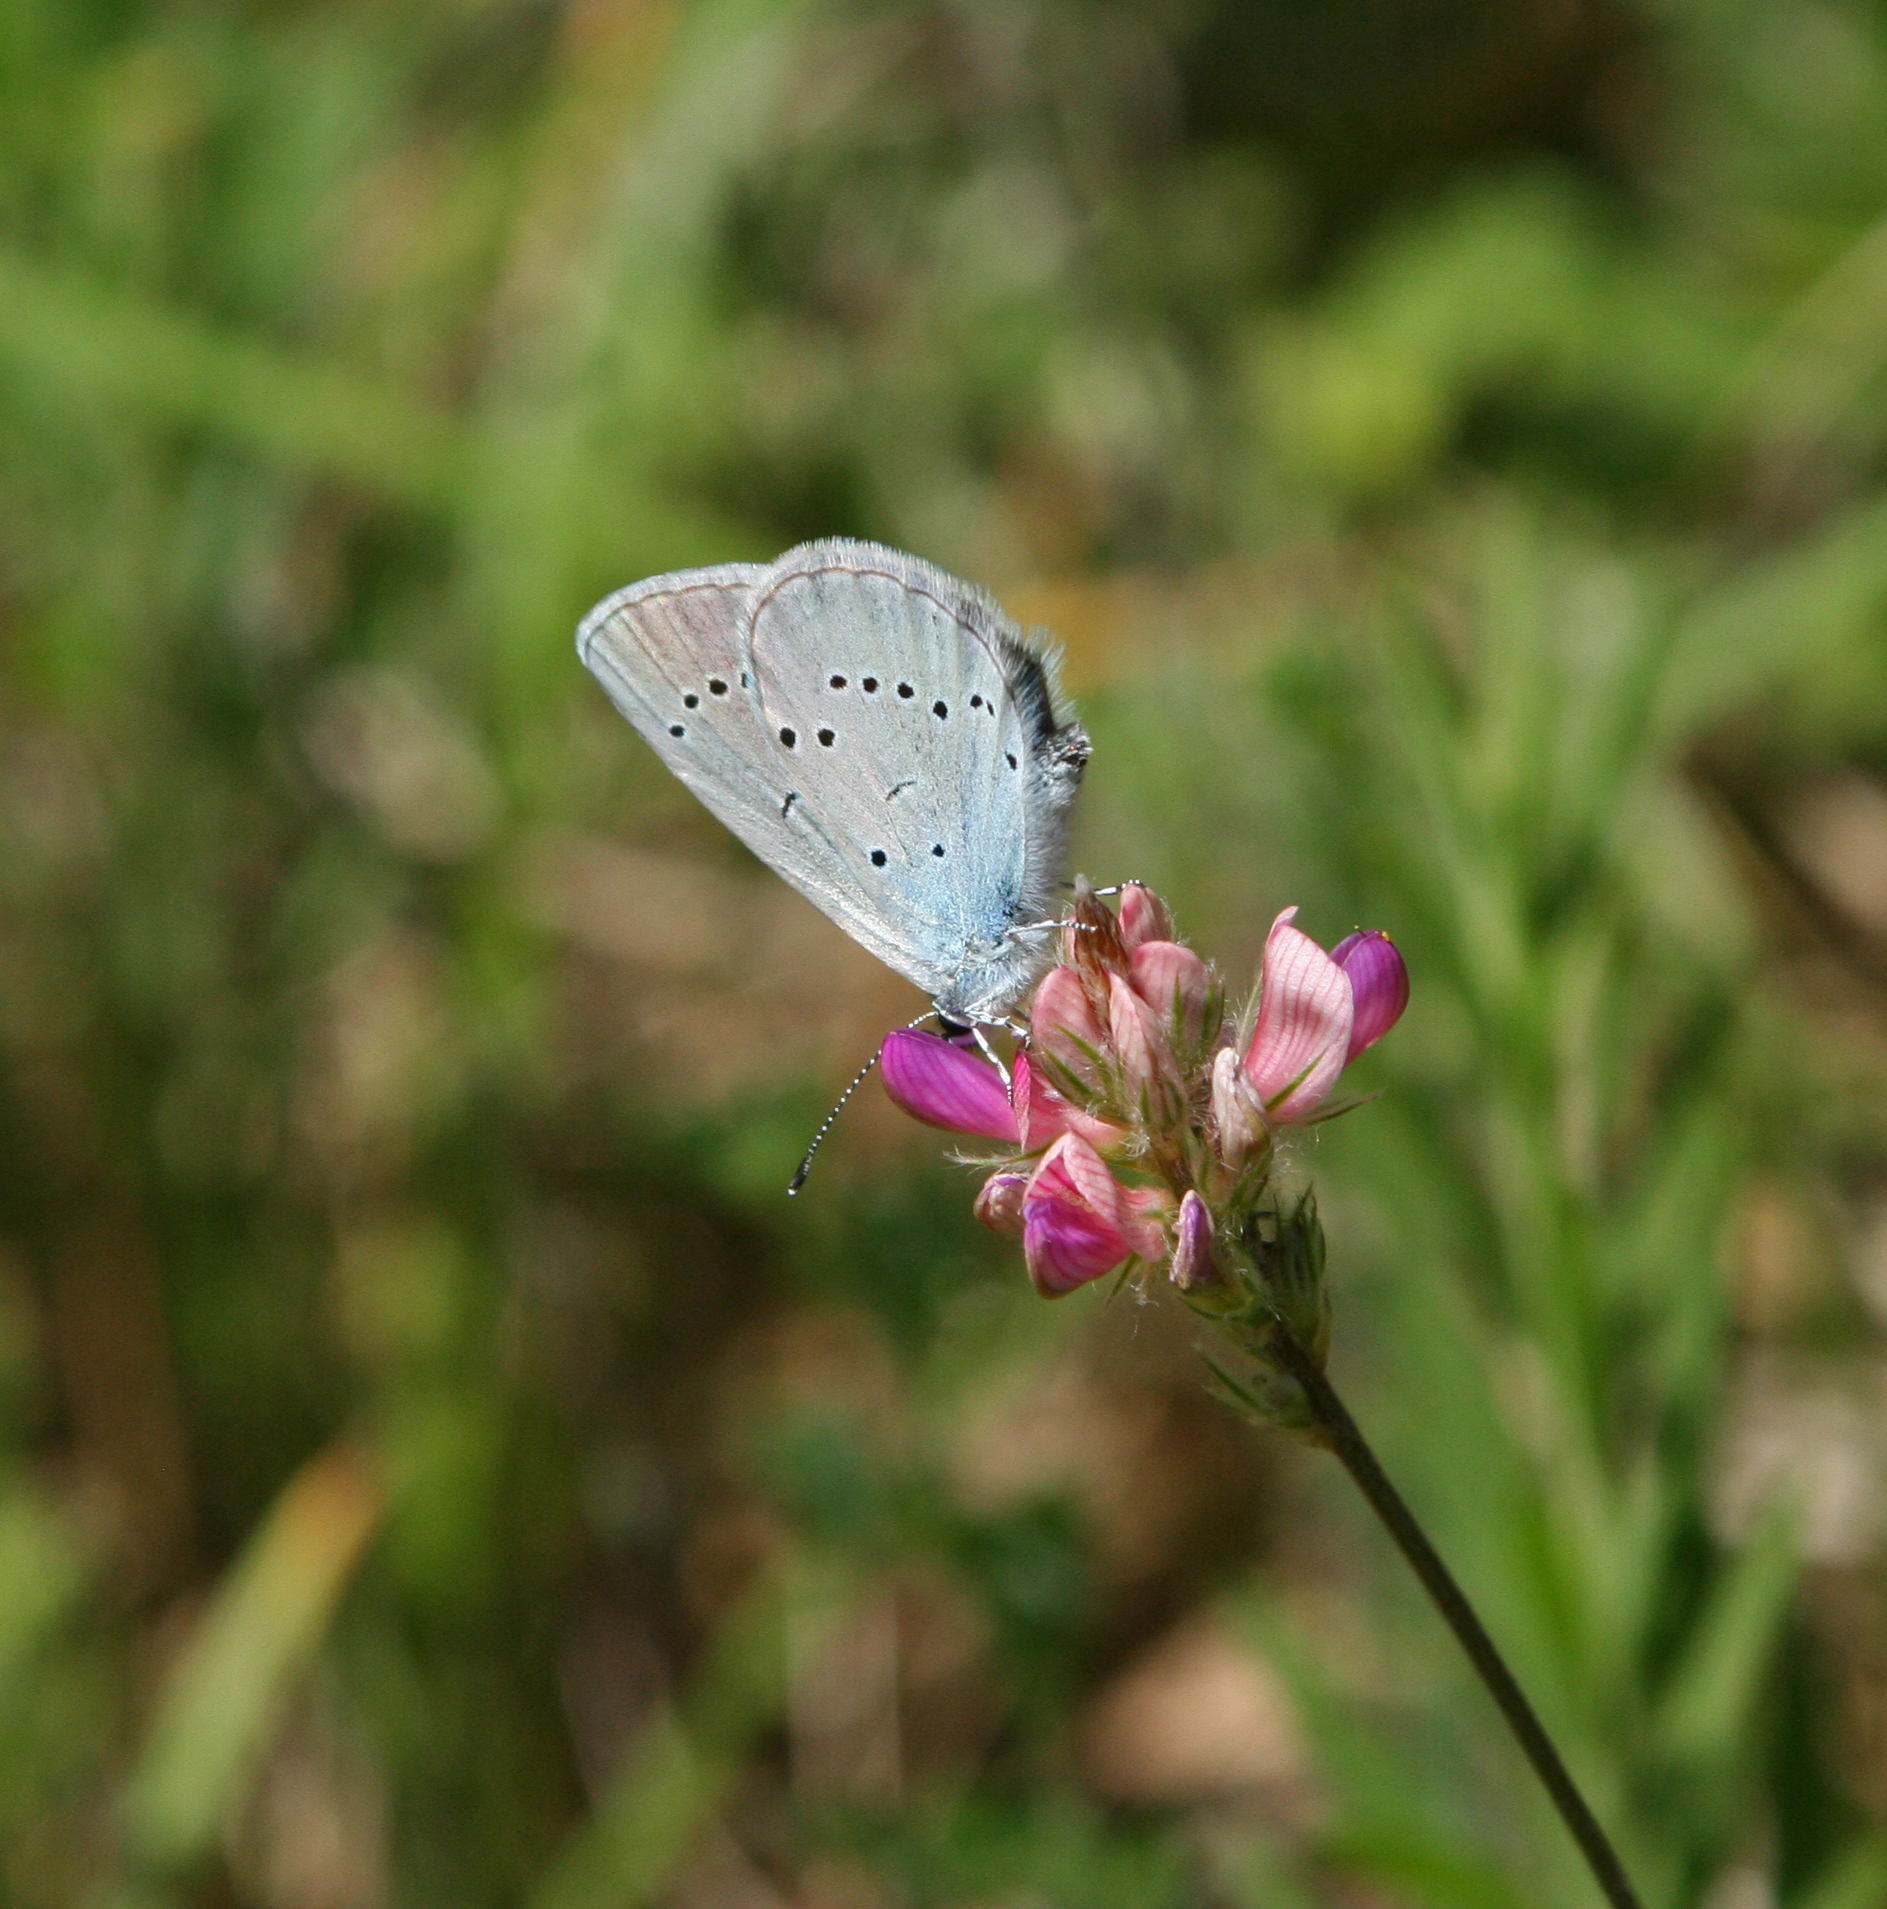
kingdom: Animalia
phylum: Arthropoda
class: Insecta
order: Lepidoptera
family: Lycaenidae
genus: Everes
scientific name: Everes sebrus
